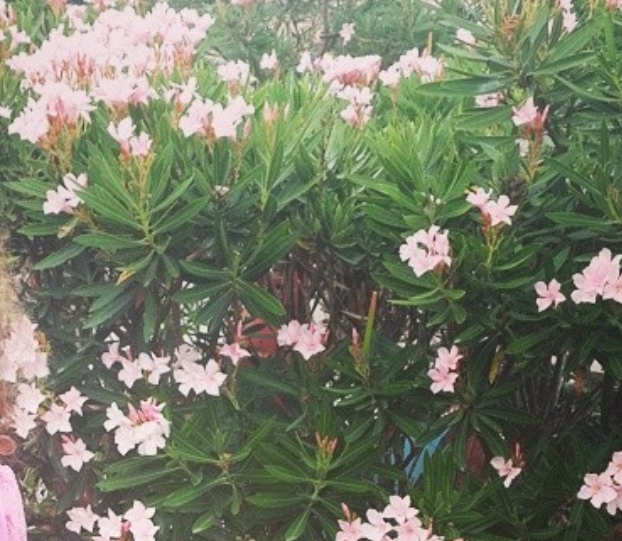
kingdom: Plantae
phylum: Tracheophyta
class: Magnoliopsida
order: Gentianales
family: Apocynaceae
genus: Nerium
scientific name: Nerium oleander
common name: Oleander
